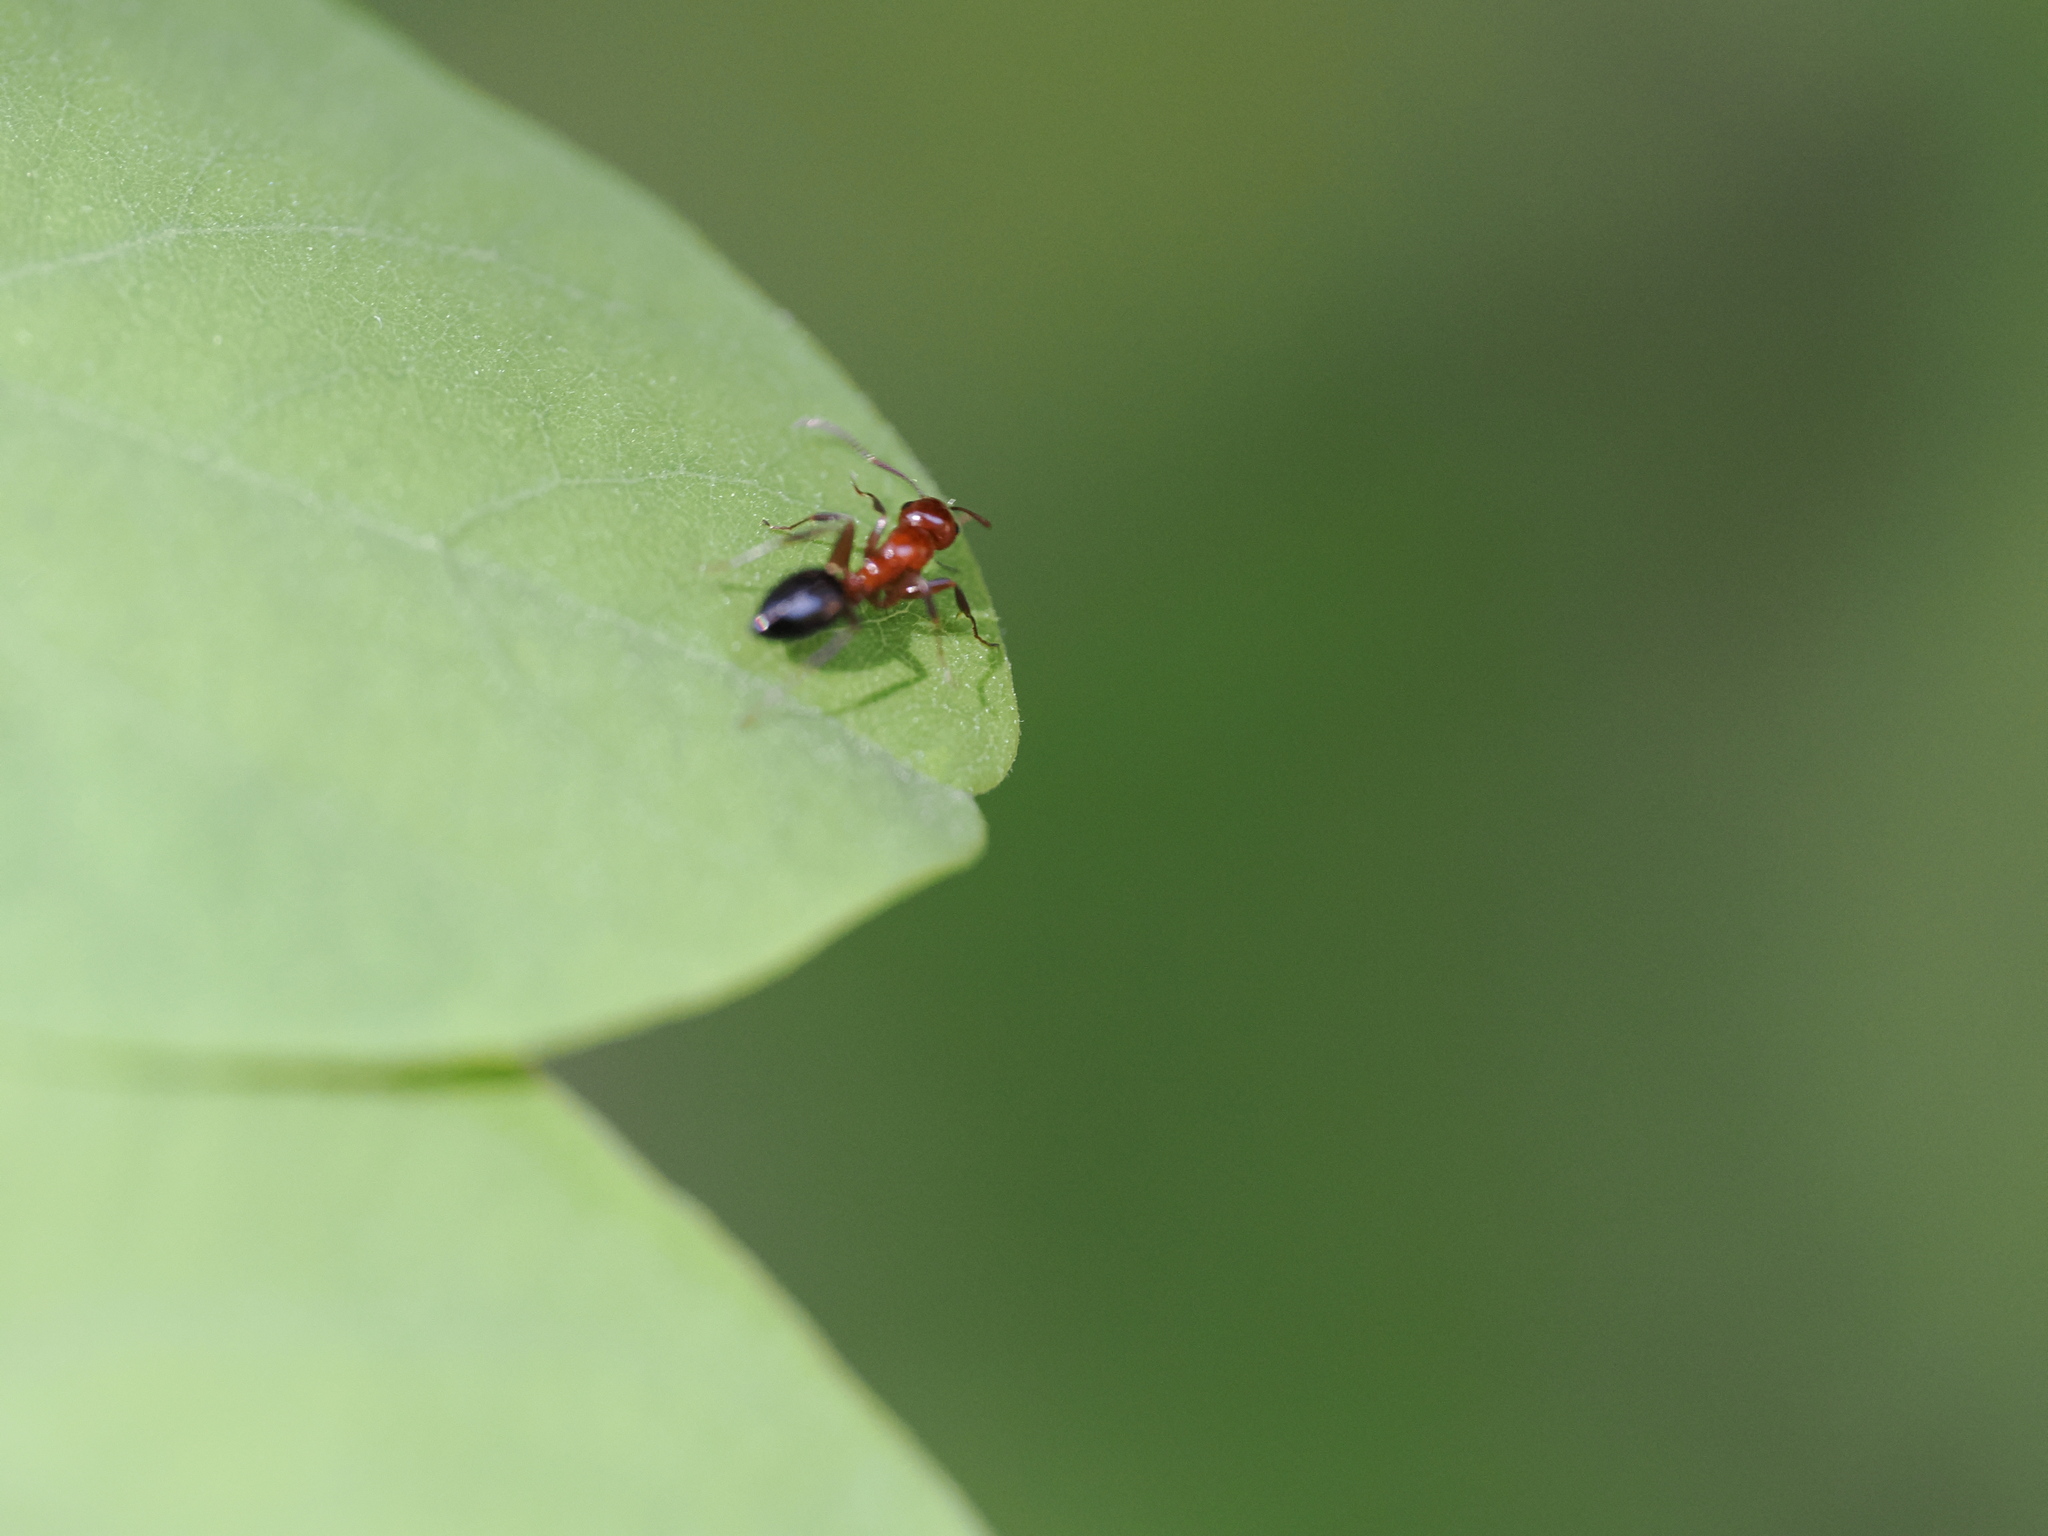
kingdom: Animalia
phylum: Arthropoda
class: Insecta
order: Hymenoptera
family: Formicidae
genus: Camponotus
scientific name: Camponotus lateralis
